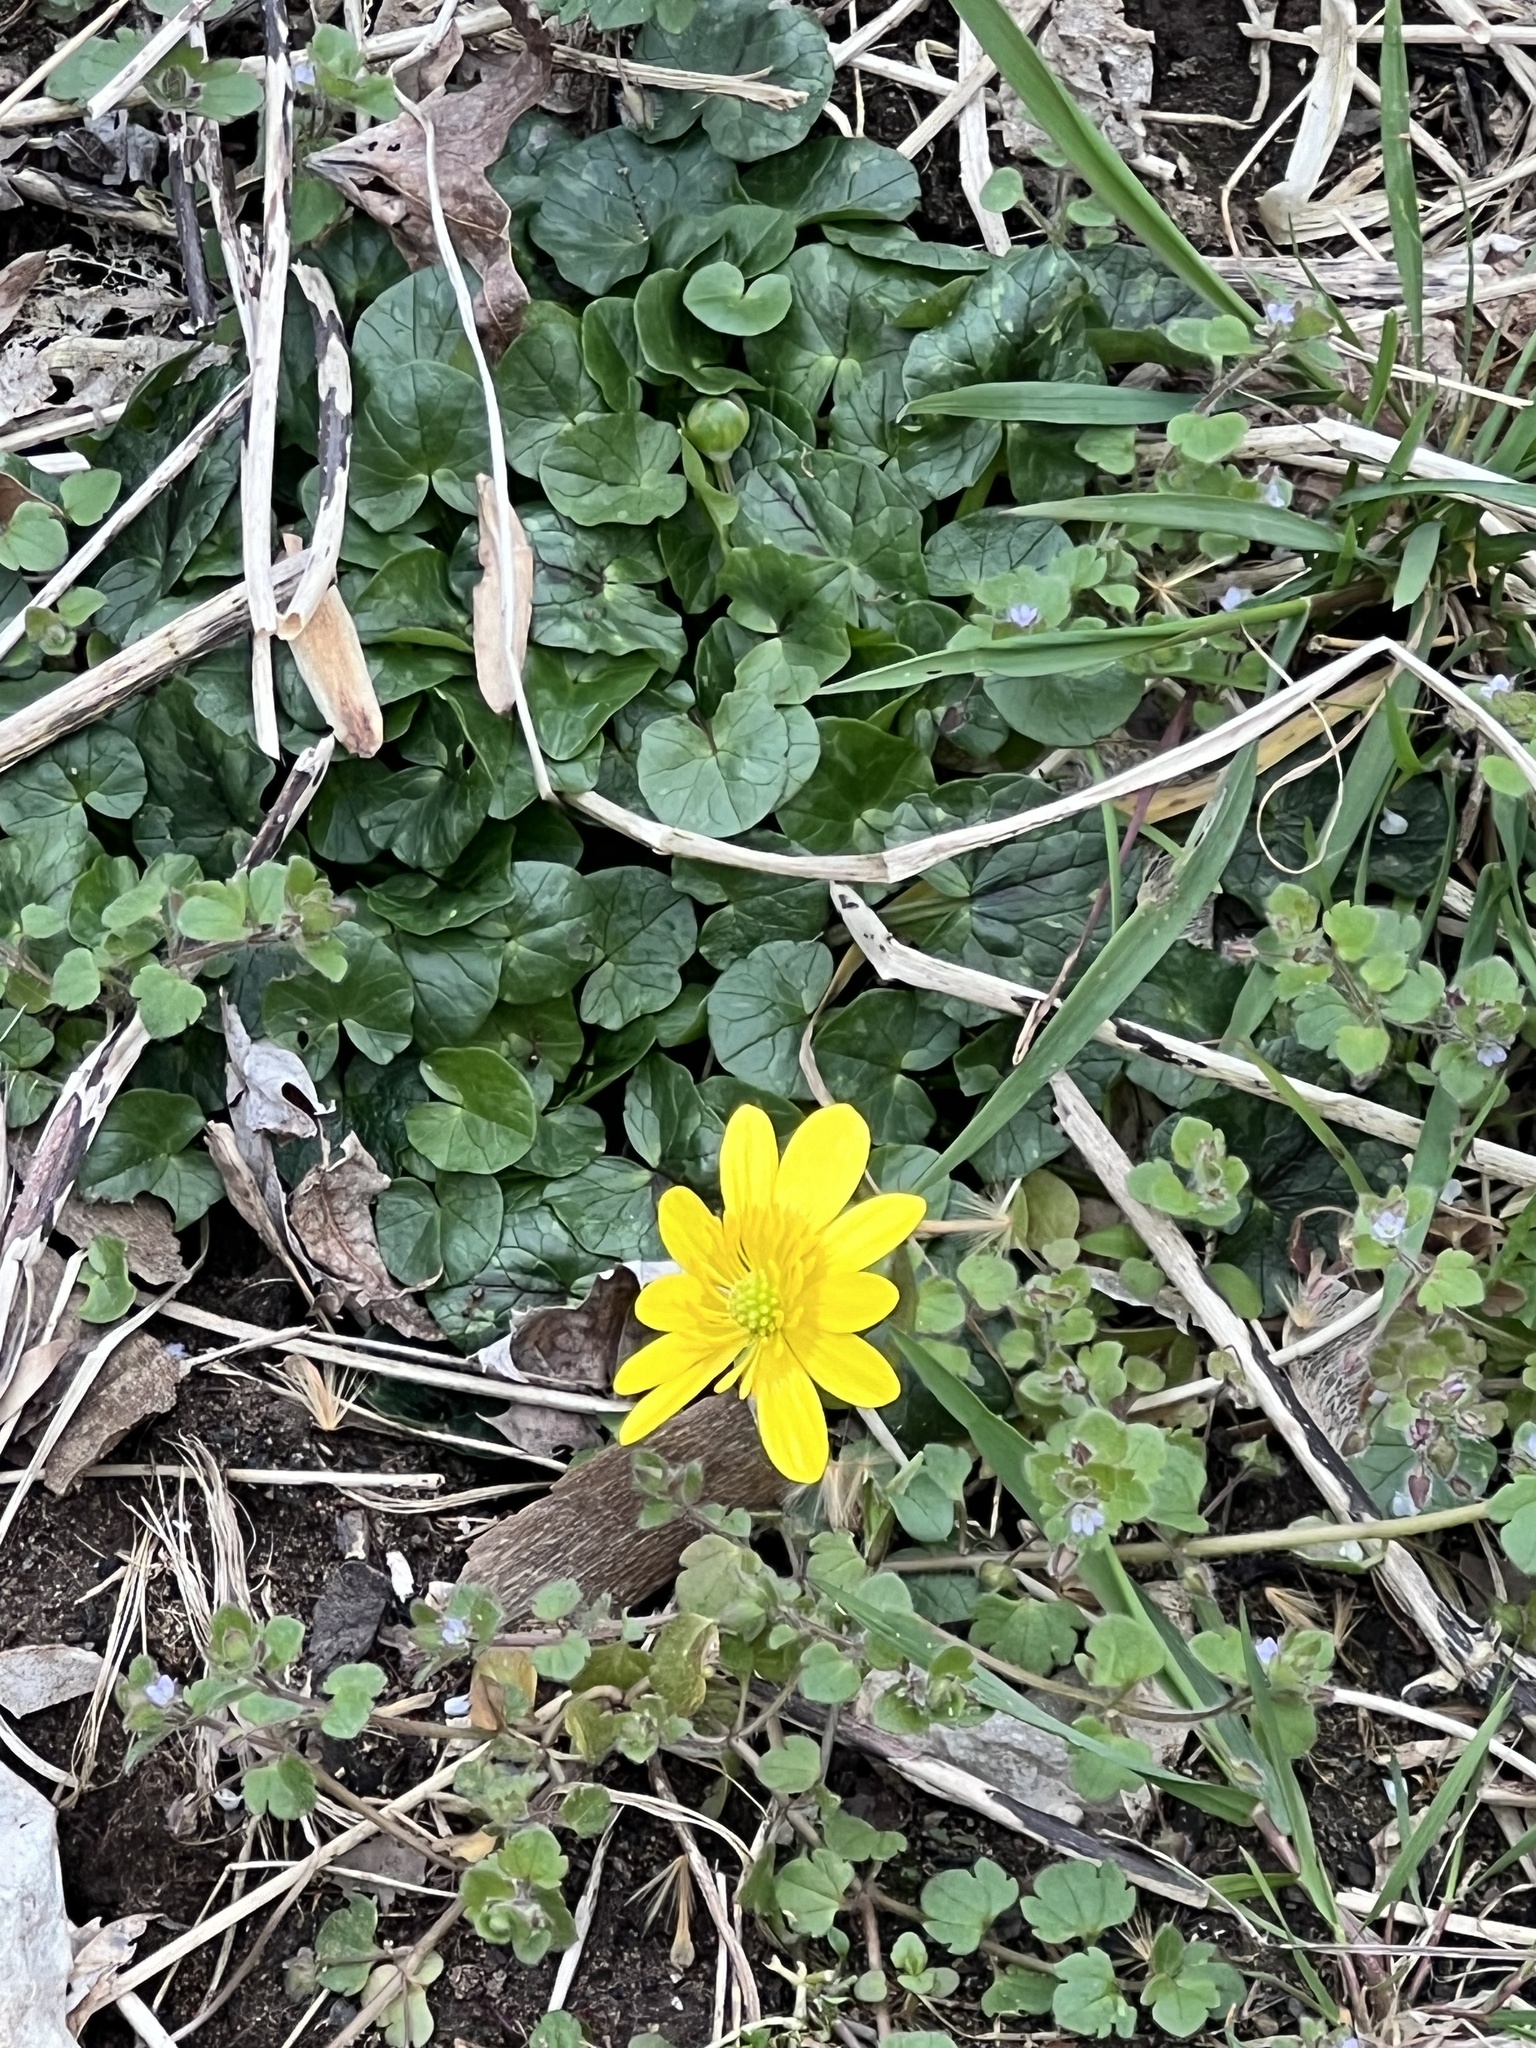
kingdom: Plantae
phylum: Tracheophyta
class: Magnoliopsida
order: Ranunculales
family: Ranunculaceae
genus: Ficaria
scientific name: Ficaria verna
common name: Lesser celandine
